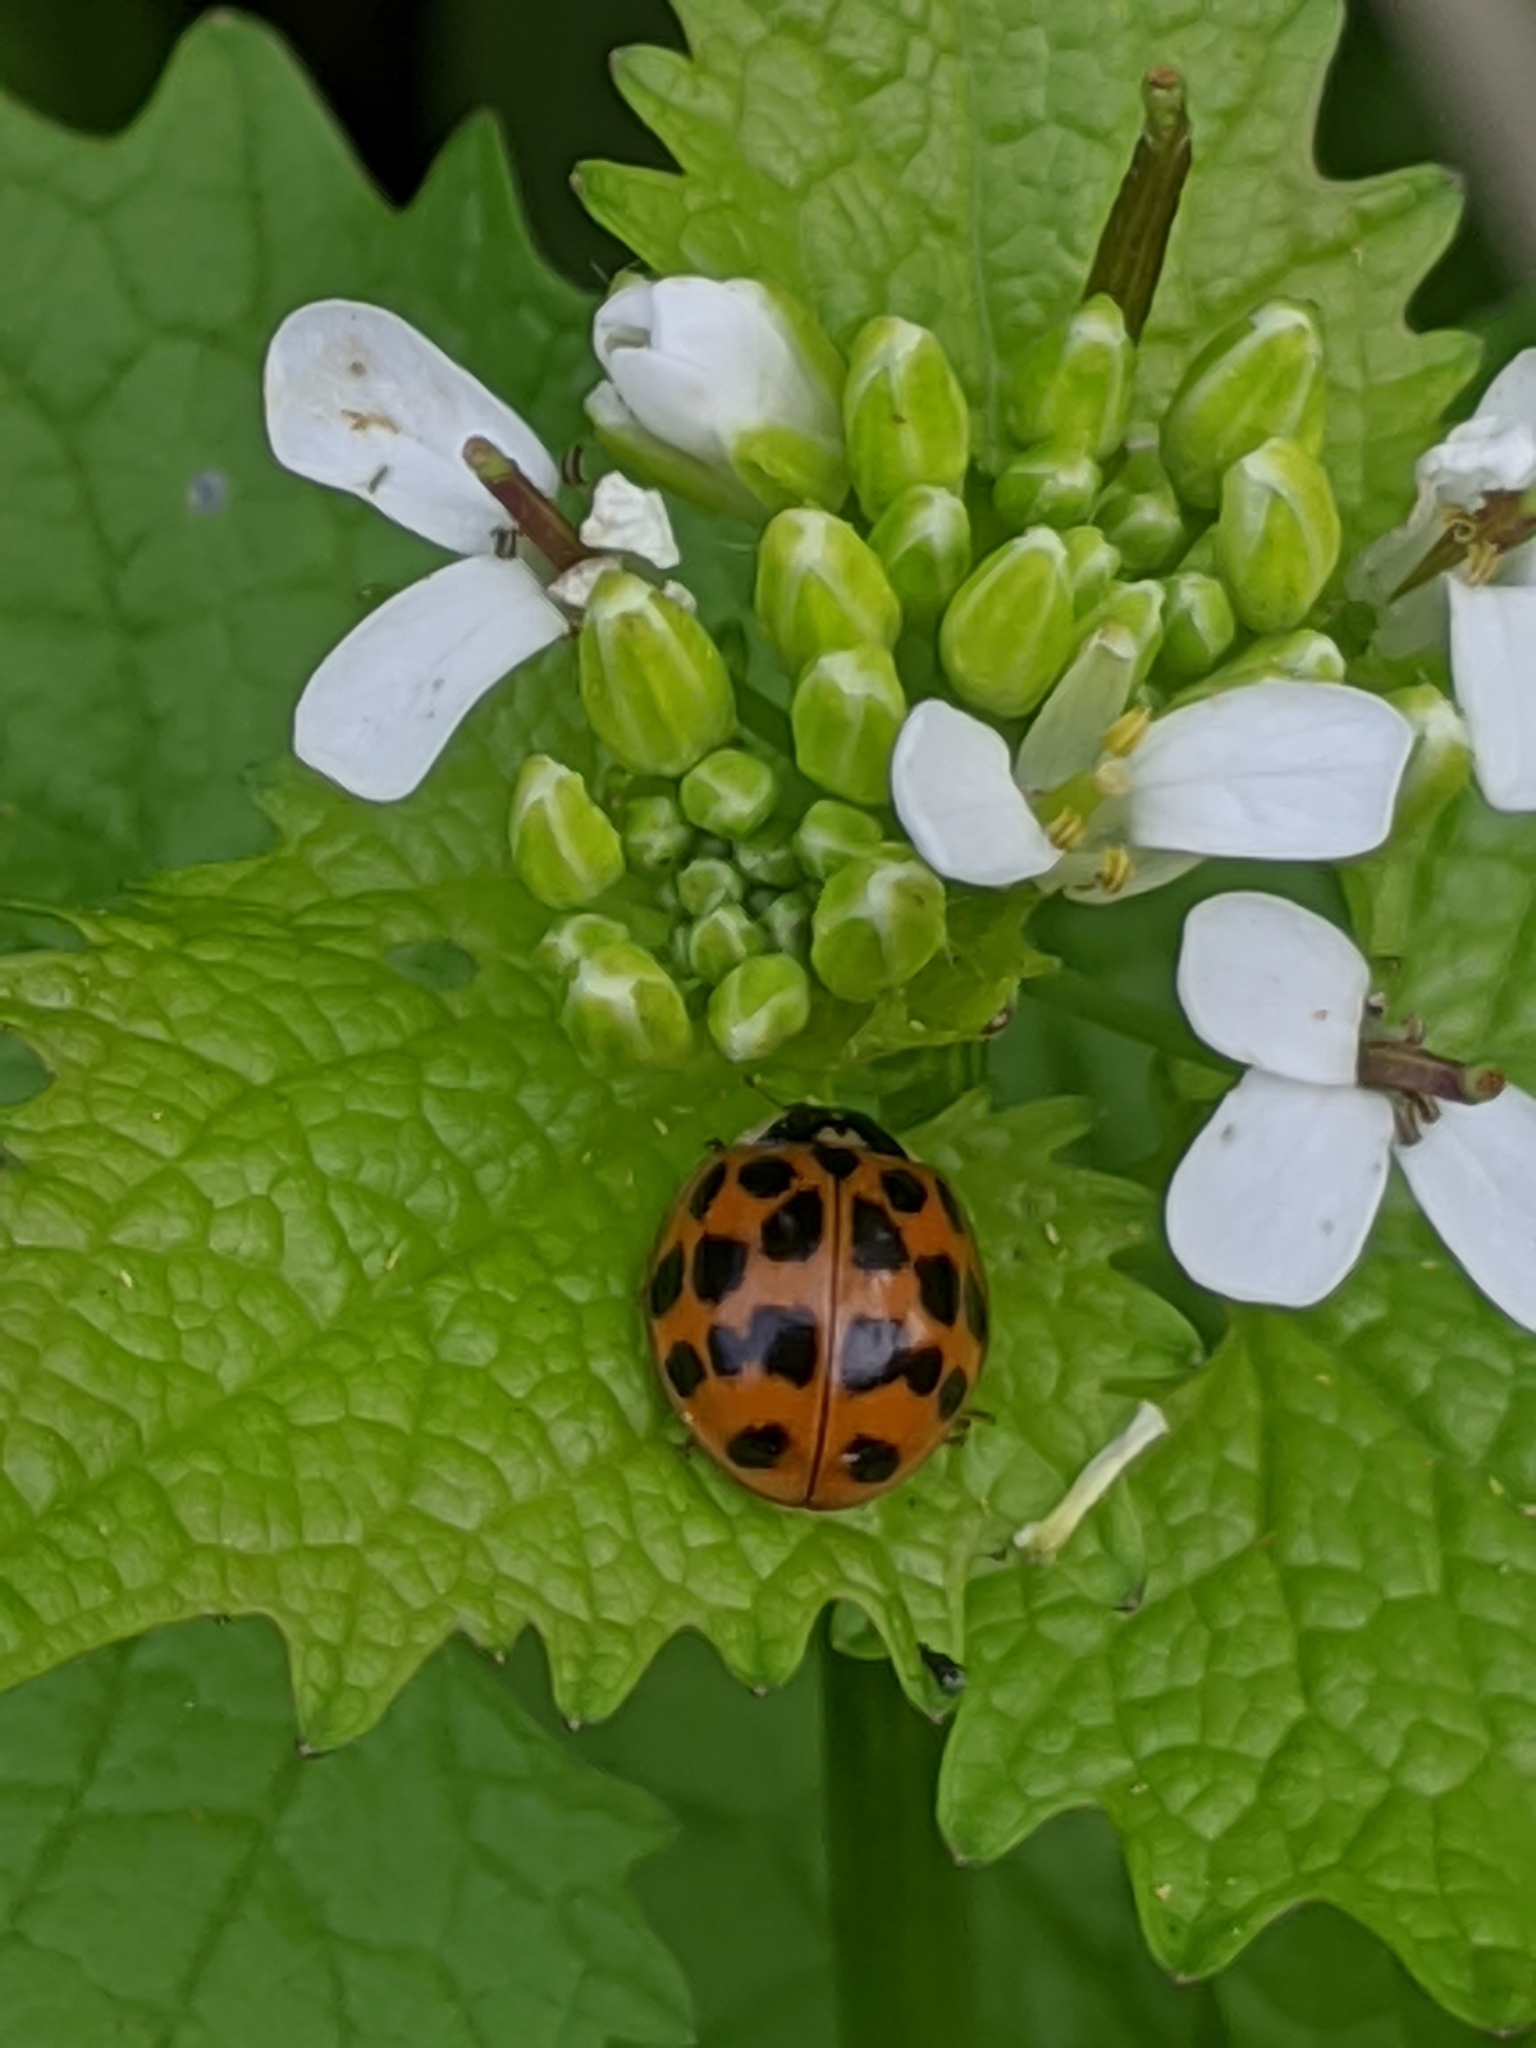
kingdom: Animalia
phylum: Arthropoda
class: Insecta
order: Coleoptera
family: Coccinellidae
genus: Harmonia
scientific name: Harmonia axyridis
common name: Harlequin ladybird
